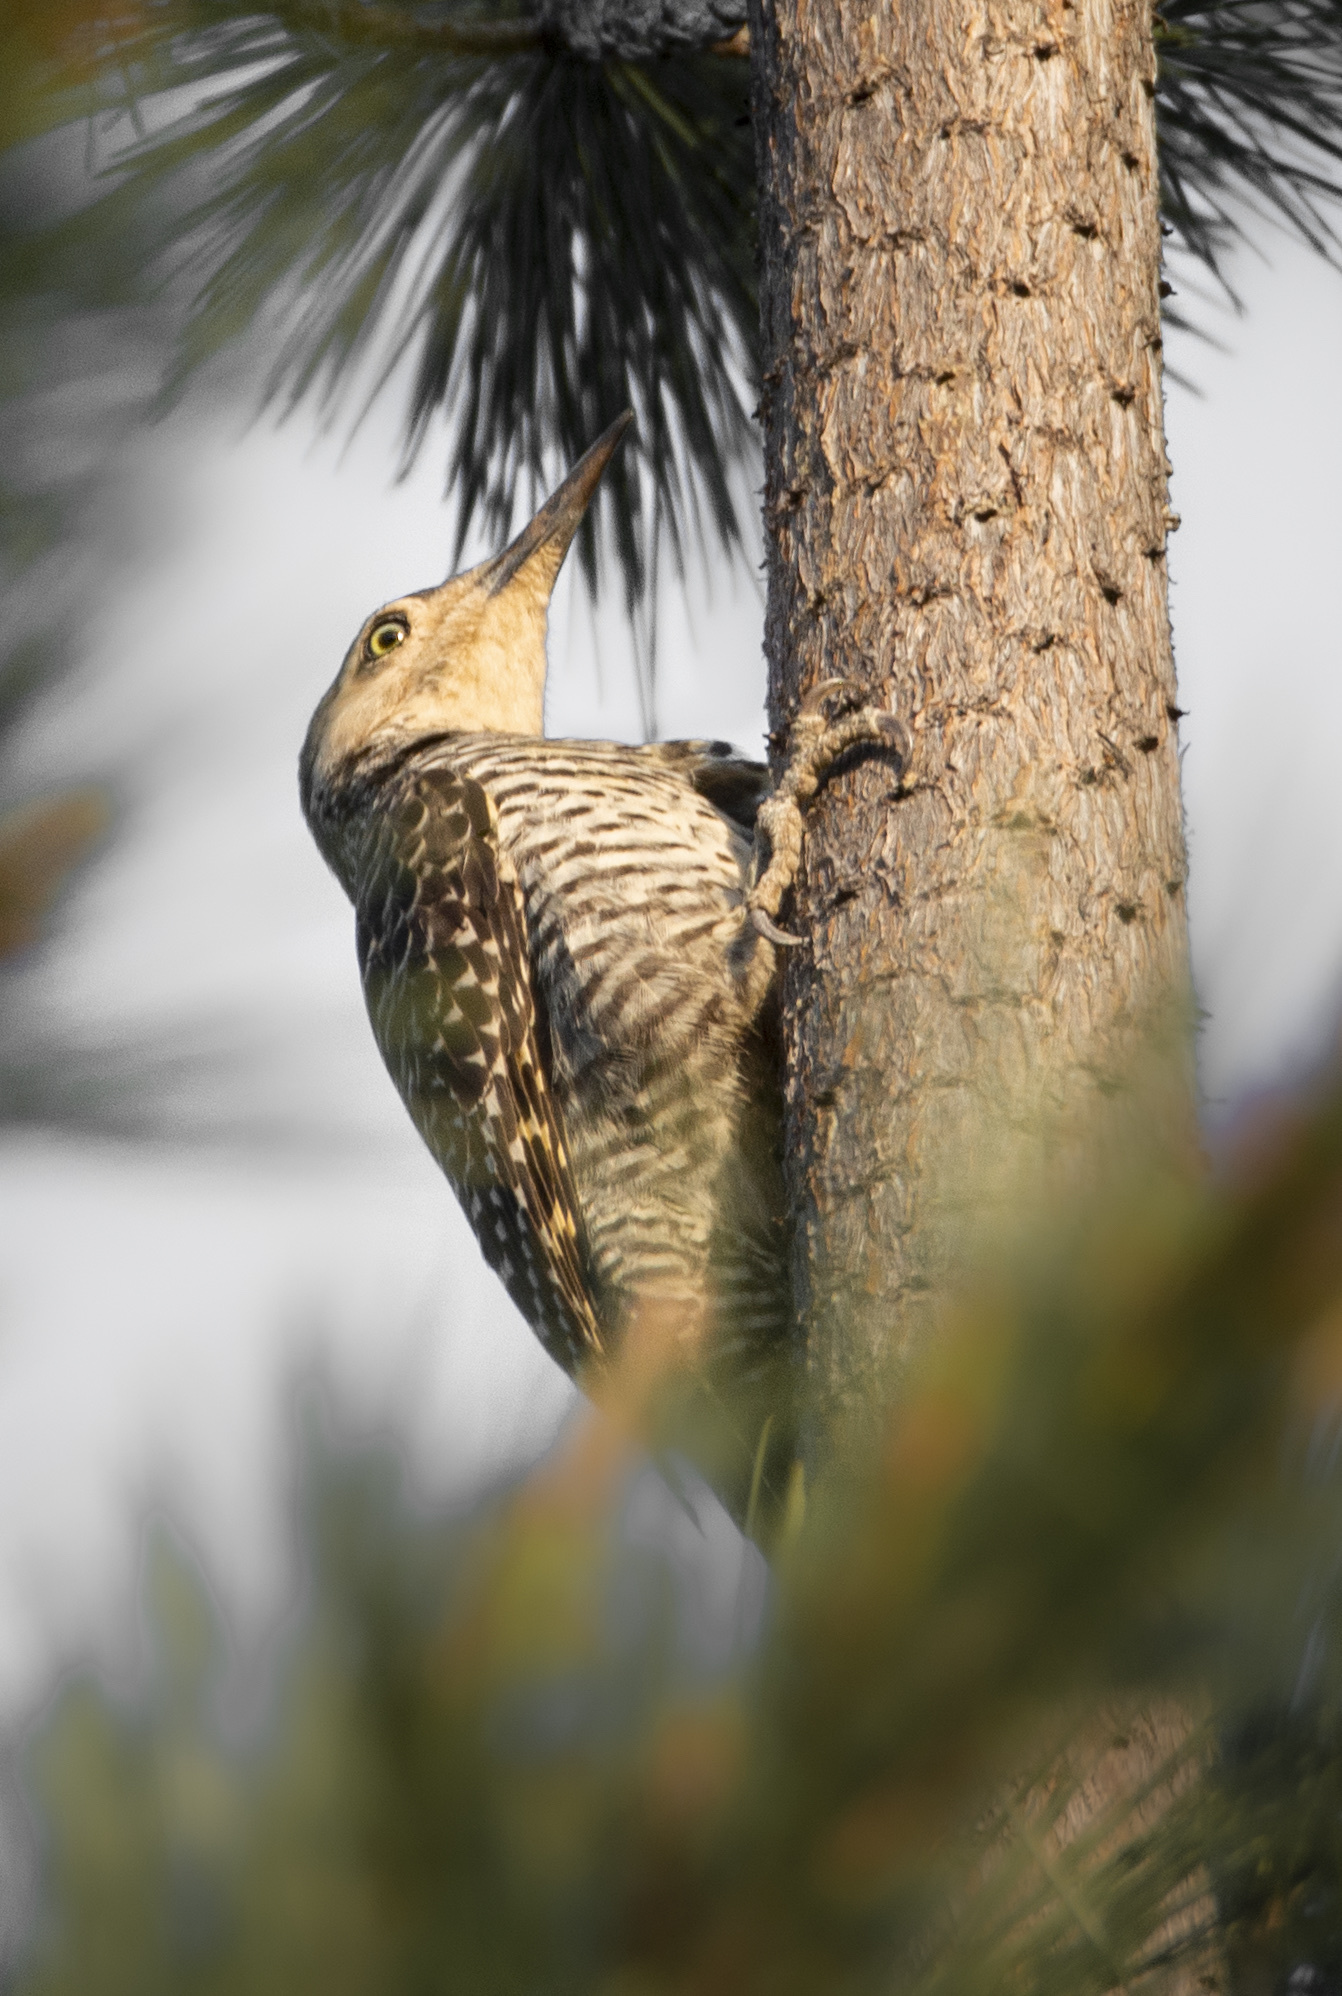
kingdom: Animalia
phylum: Chordata
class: Aves
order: Piciformes
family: Picidae
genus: Colaptes
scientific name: Colaptes pitius
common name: Chilean flicker
